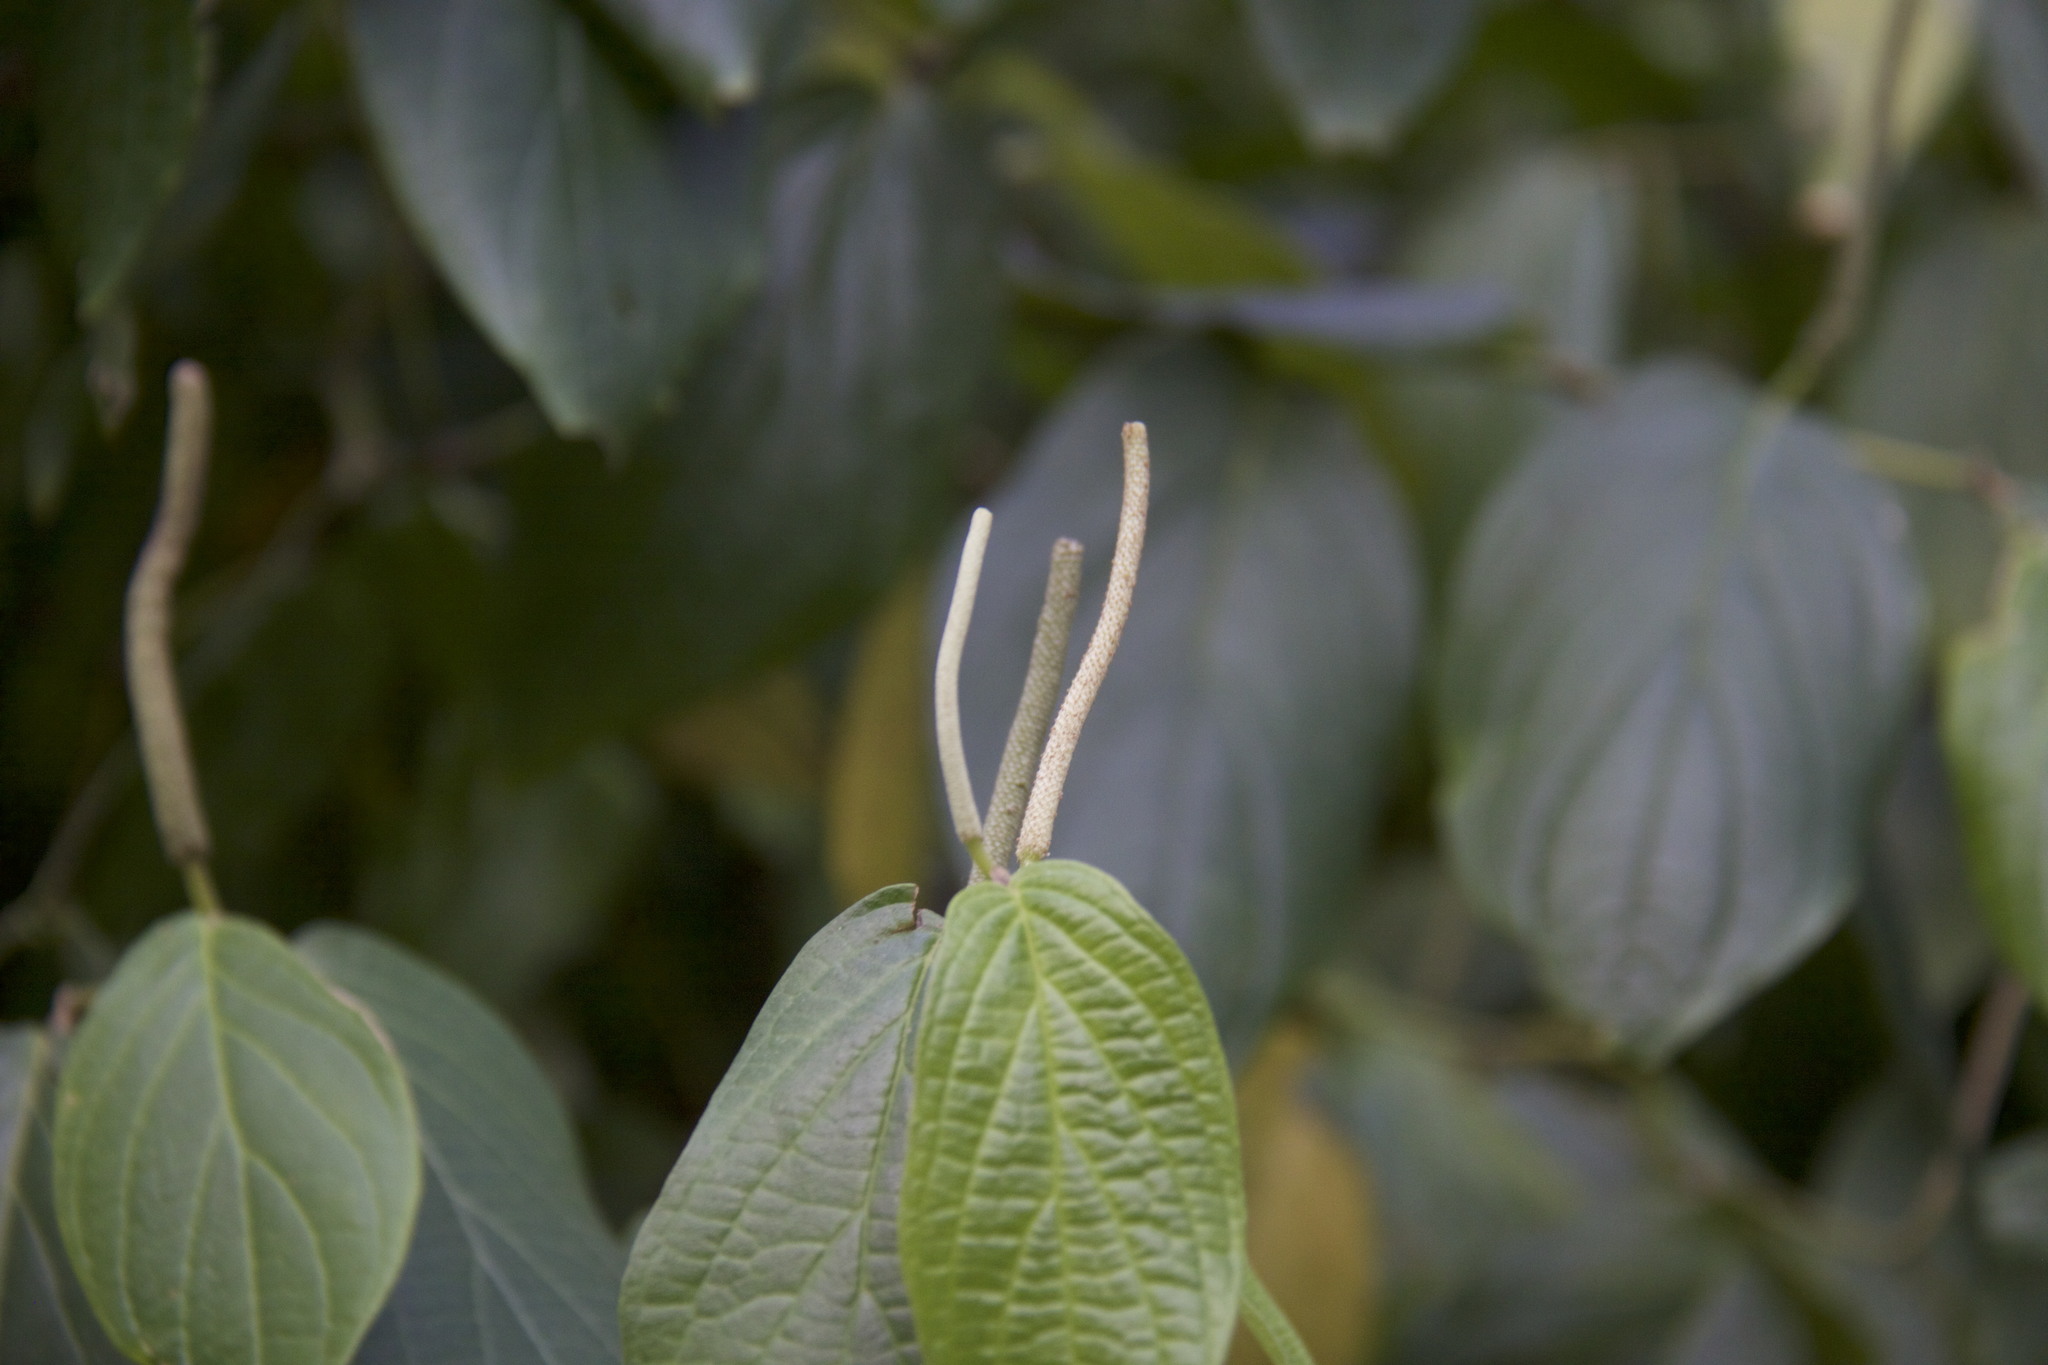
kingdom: Plantae
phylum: Tracheophyta
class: Magnoliopsida
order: Piperales
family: Piperaceae
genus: Piper
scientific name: Piper aduncum
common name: Spiked pepper
